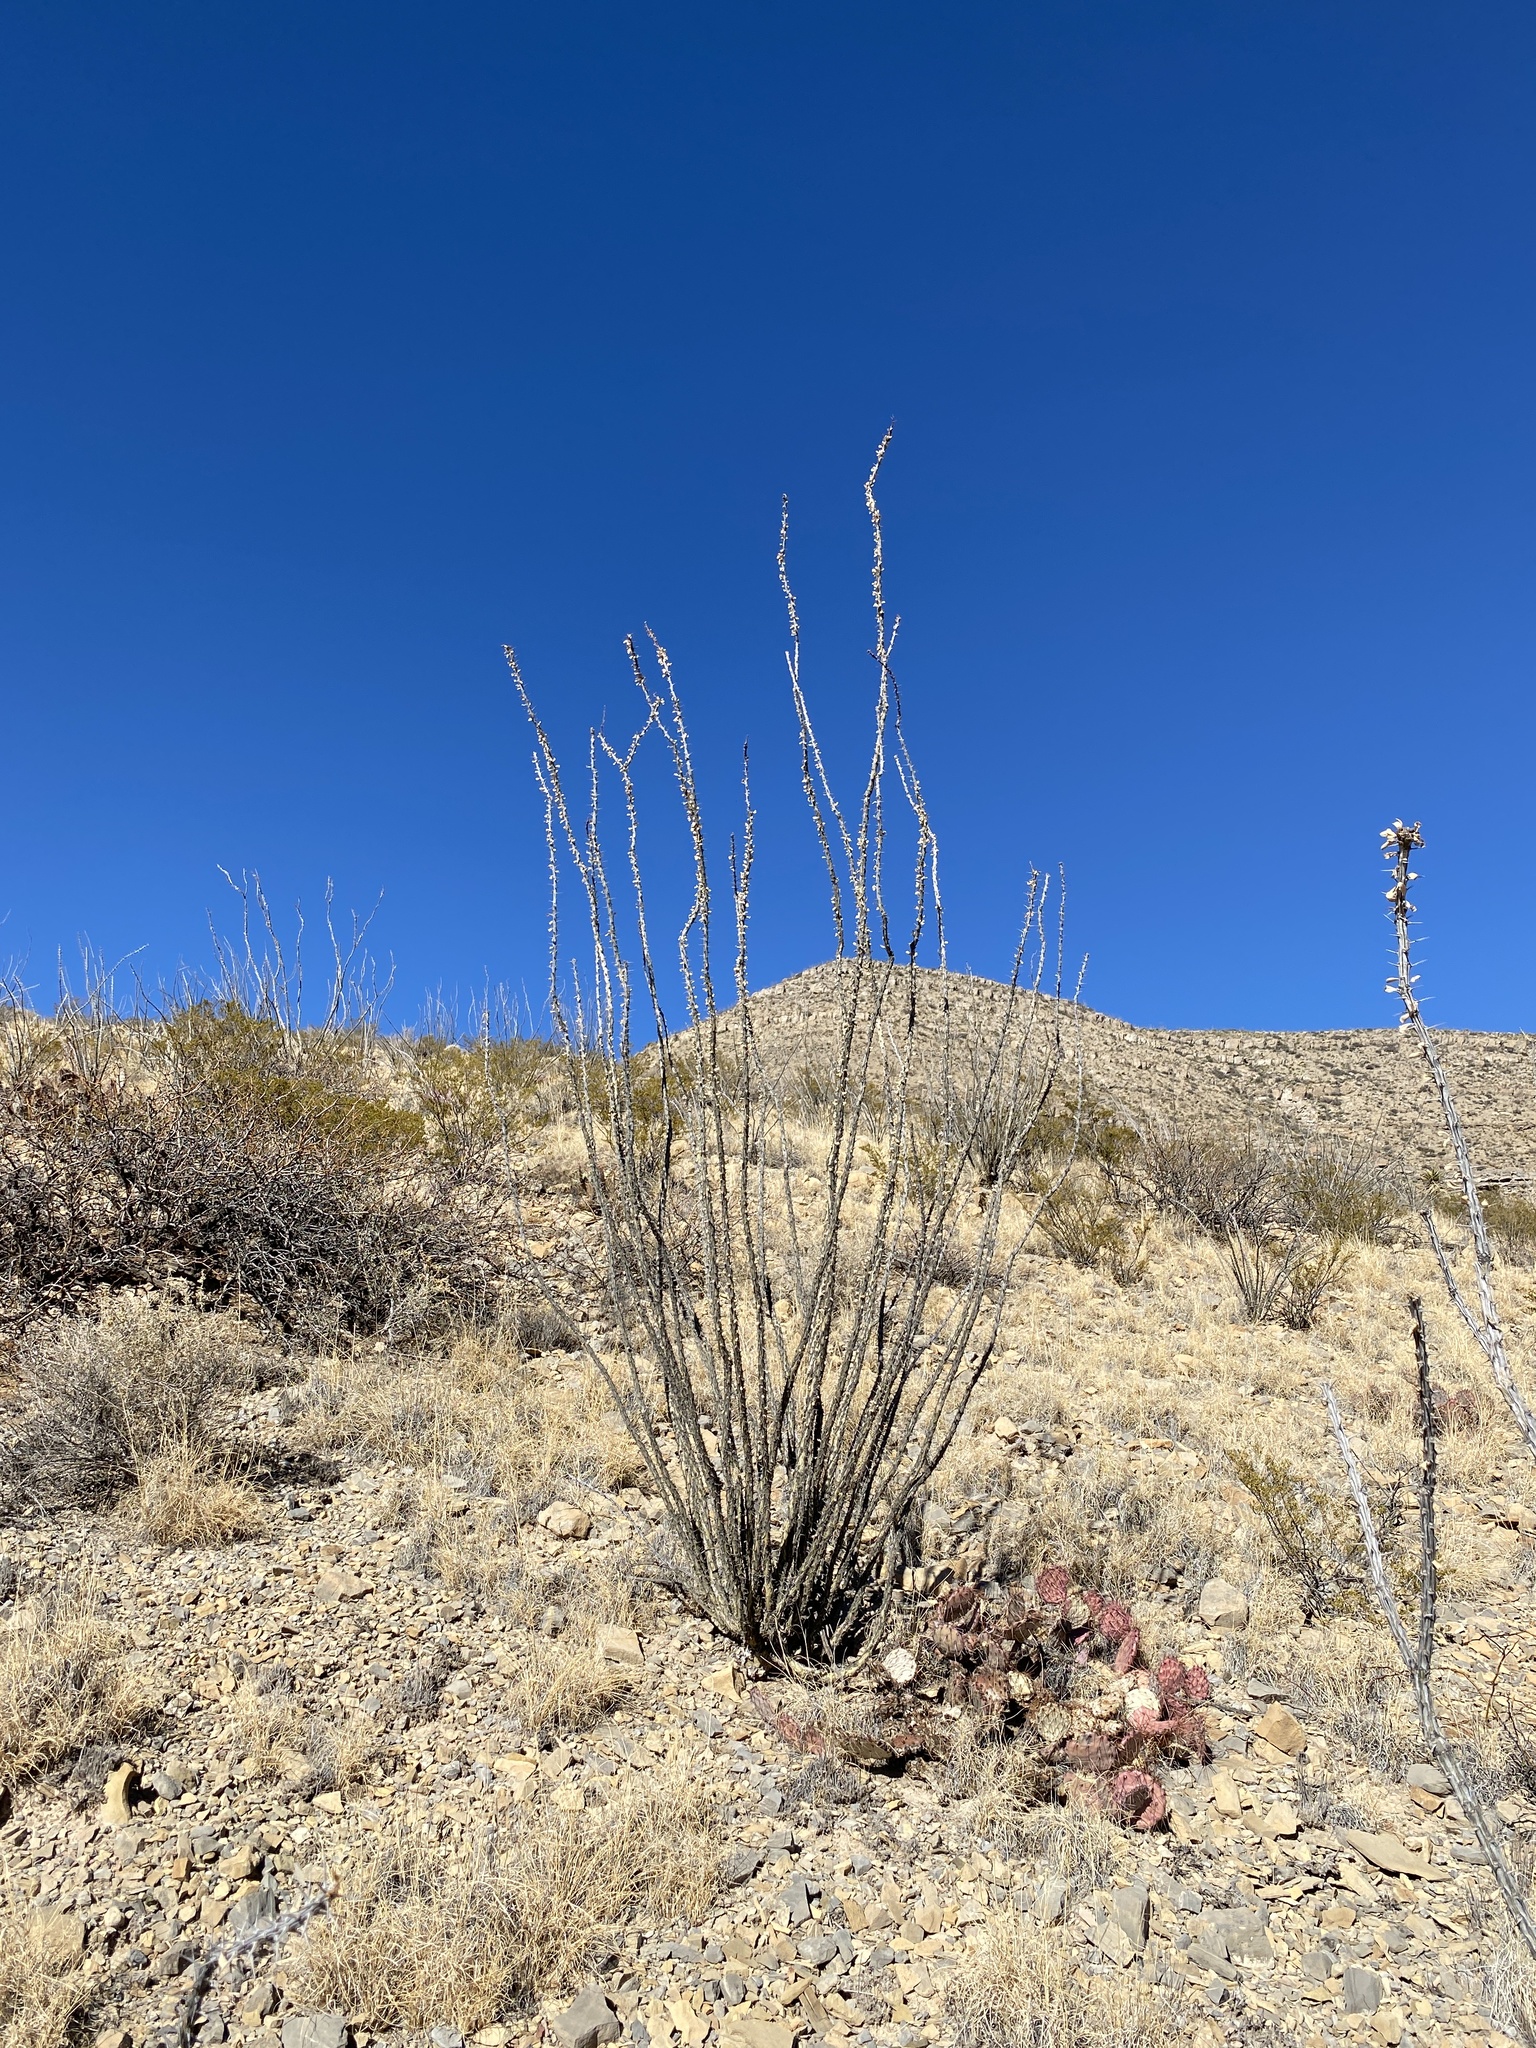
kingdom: Plantae
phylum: Tracheophyta
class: Magnoliopsida
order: Ericales
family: Fouquieriaceae
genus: Fouquieria
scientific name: Fouquieria splendens
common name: Vine-cactus
